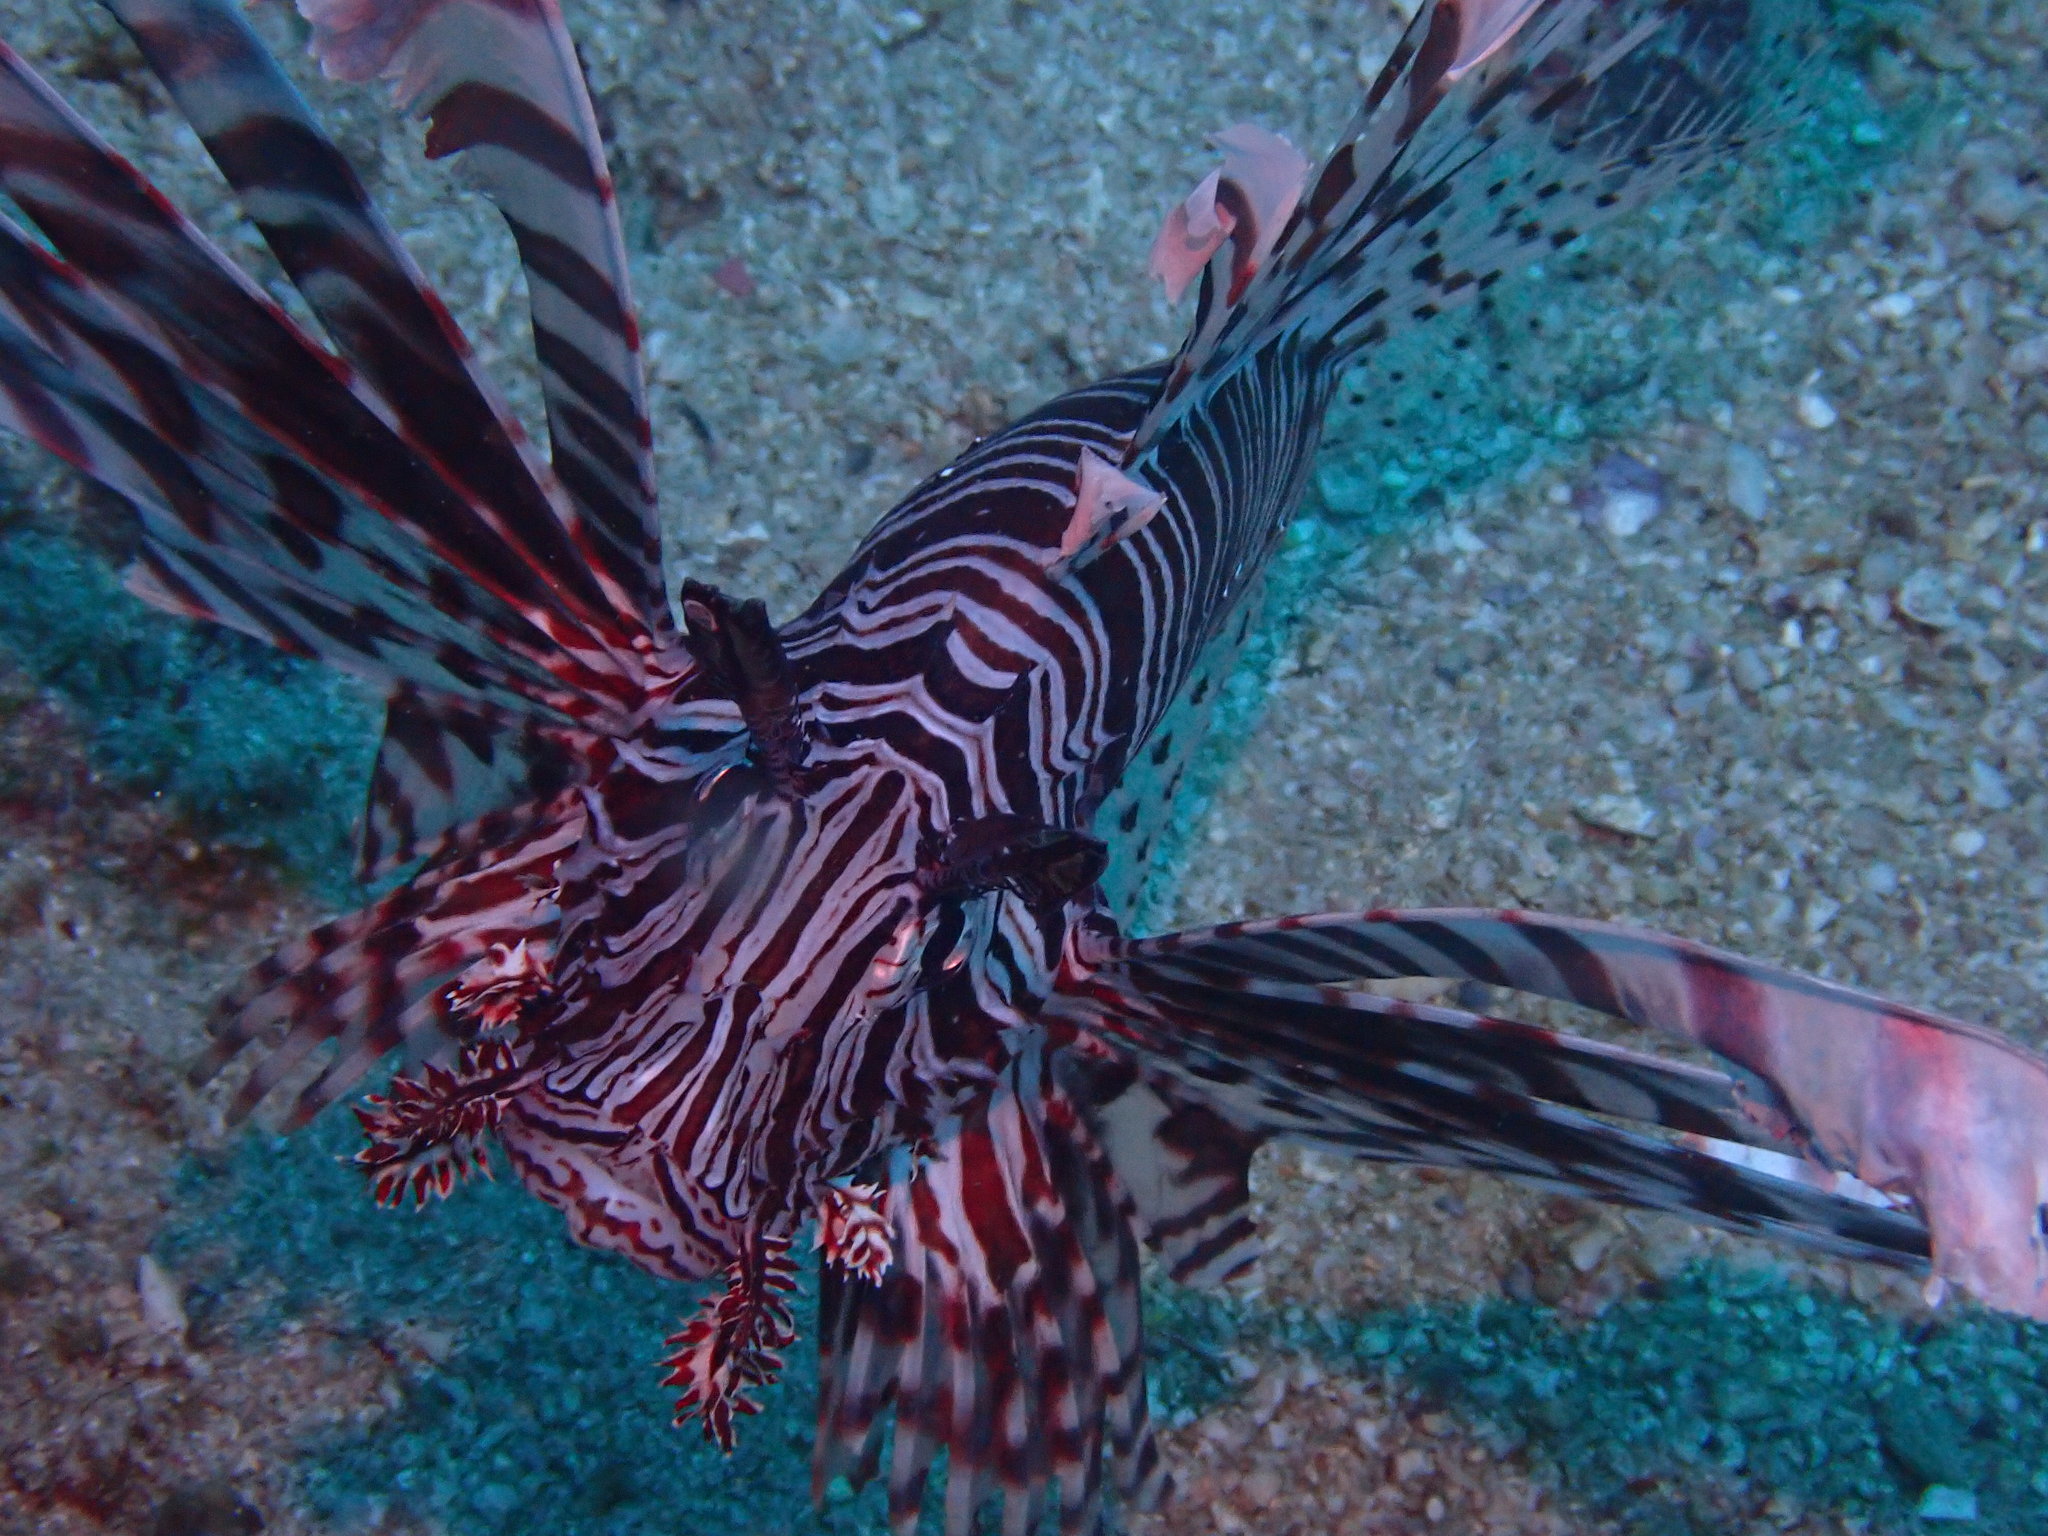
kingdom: Animalia
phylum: Chordata
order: Scorpaeniformes
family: Scorpaenidae
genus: Pterois
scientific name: Pterois volitans
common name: Lionfish
